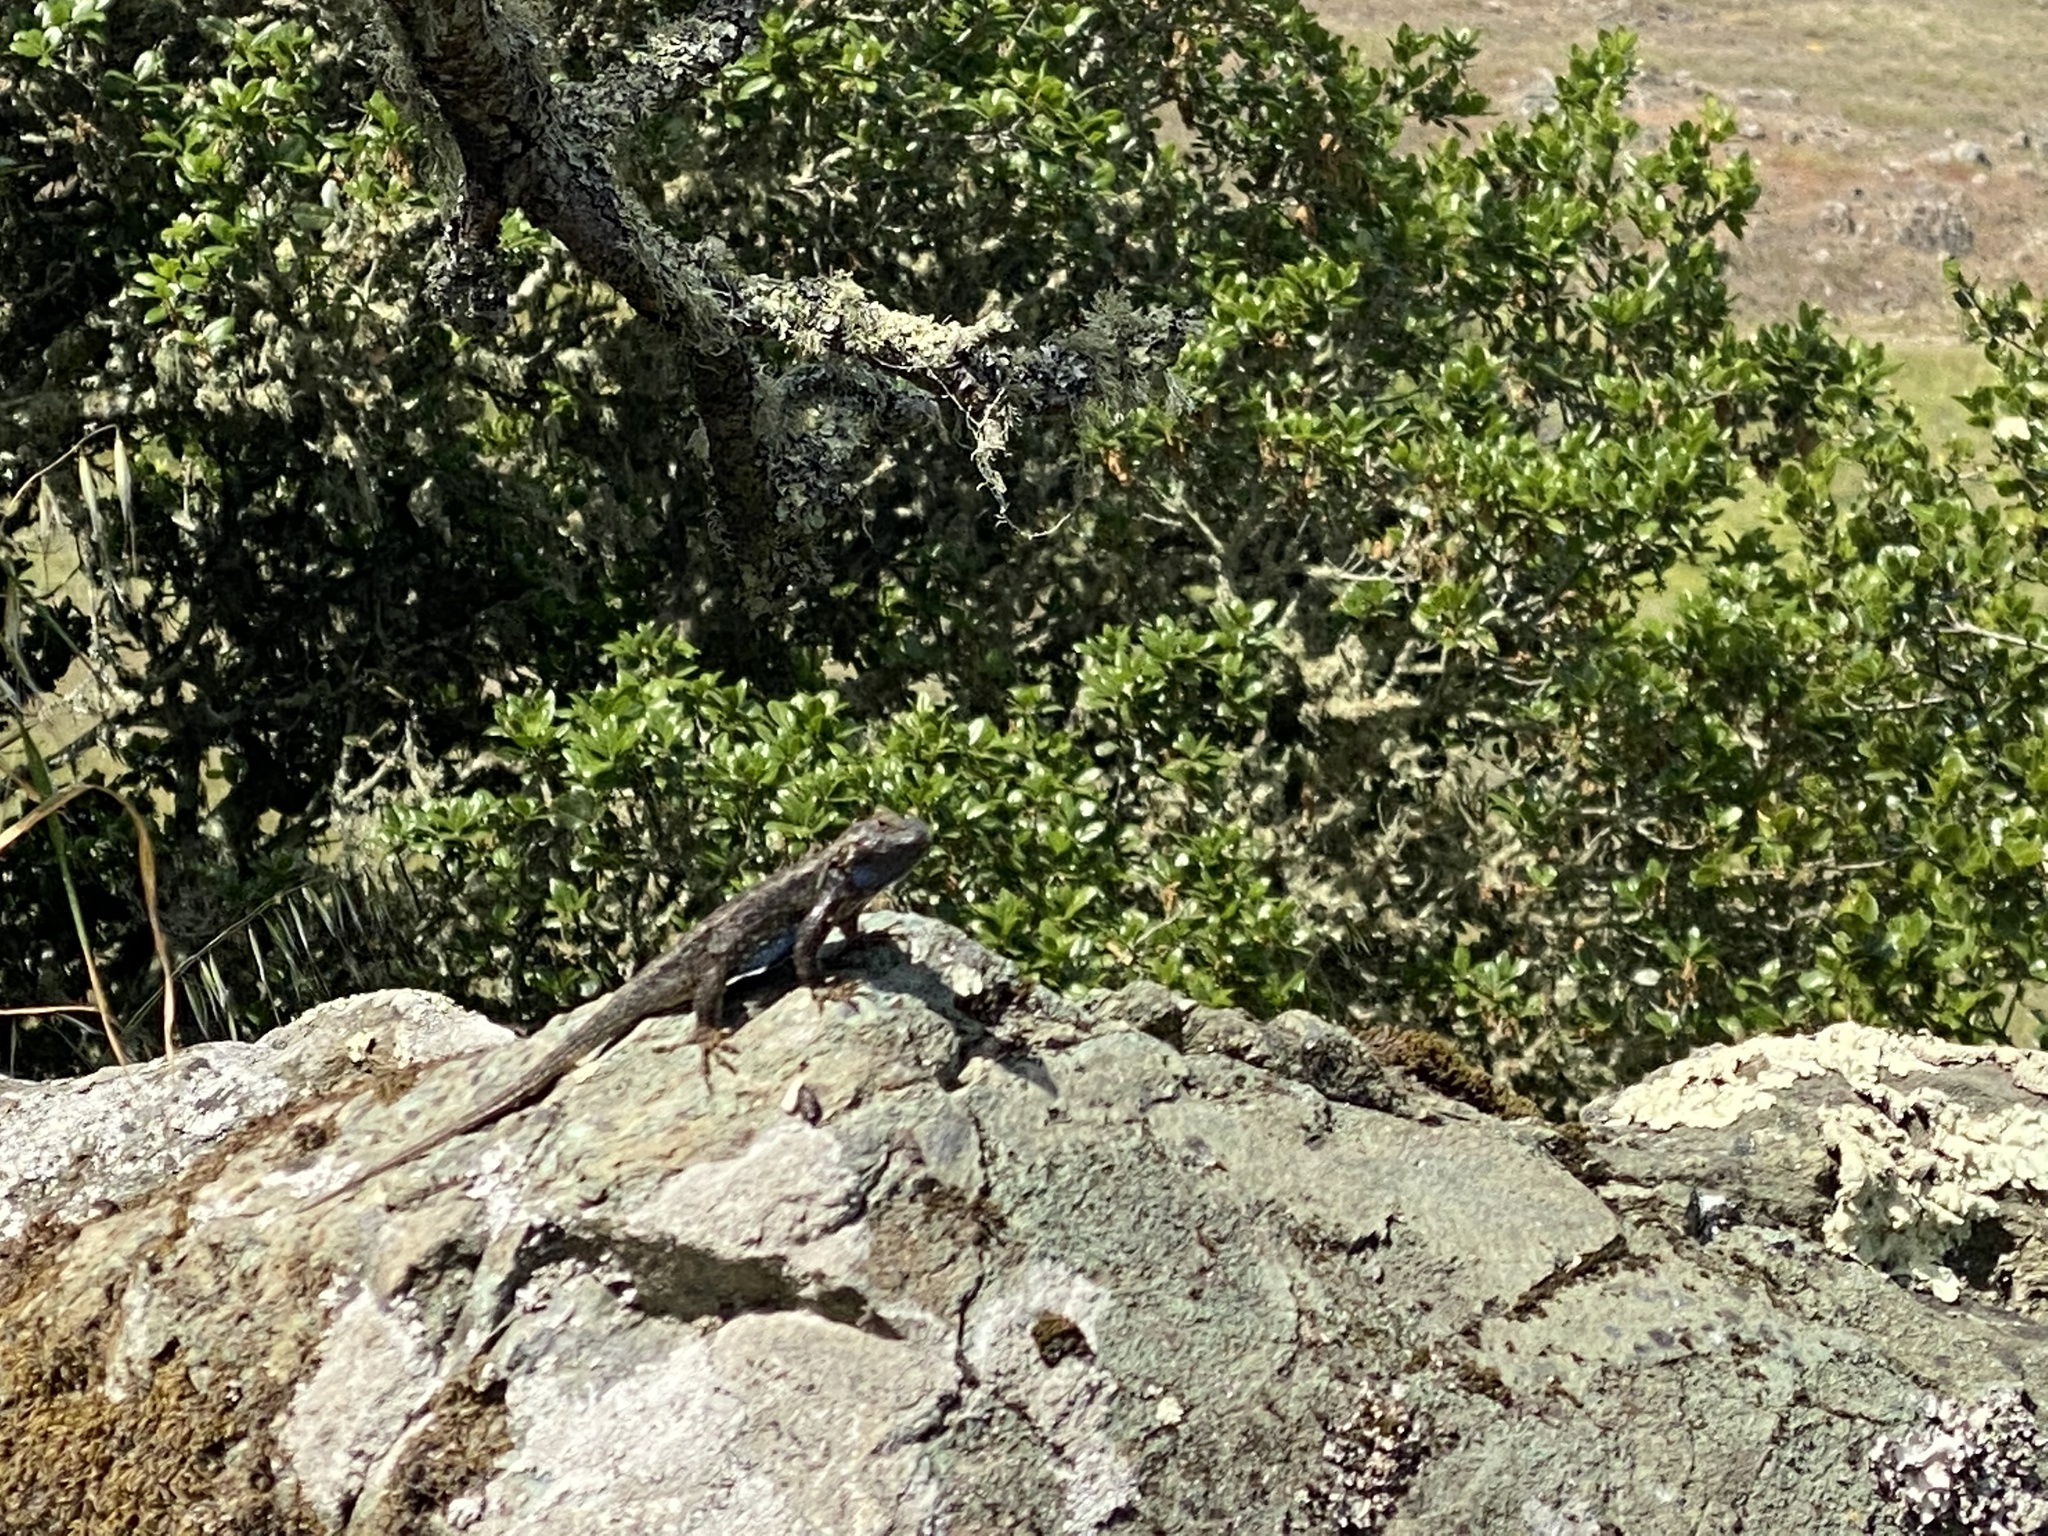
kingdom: Animalia
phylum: Chordata
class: Squamata
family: Phrynosomatidae
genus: Sceloporus
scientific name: Sceloporus occidentalis
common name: Western fence lizard
